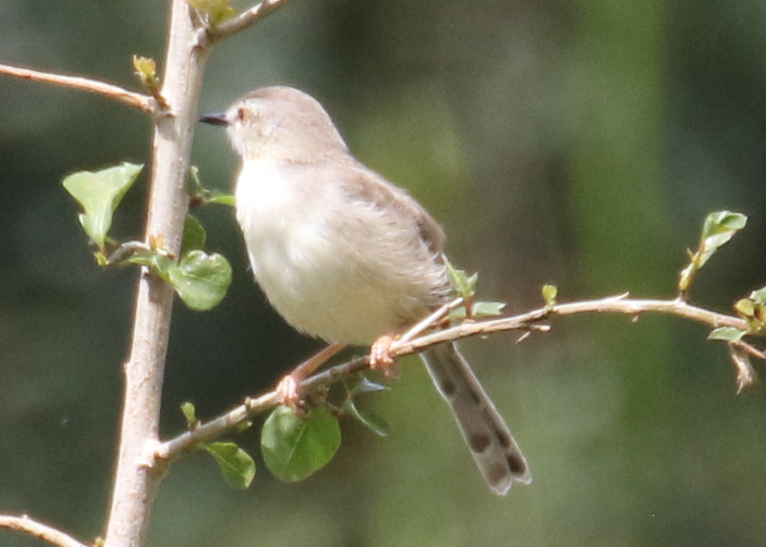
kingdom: Animalia
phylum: Chordata
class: Aves
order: Passeriformes
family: Cisticolidae
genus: Prinia
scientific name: Prinia subflava
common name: Tawny-flanked prinia
